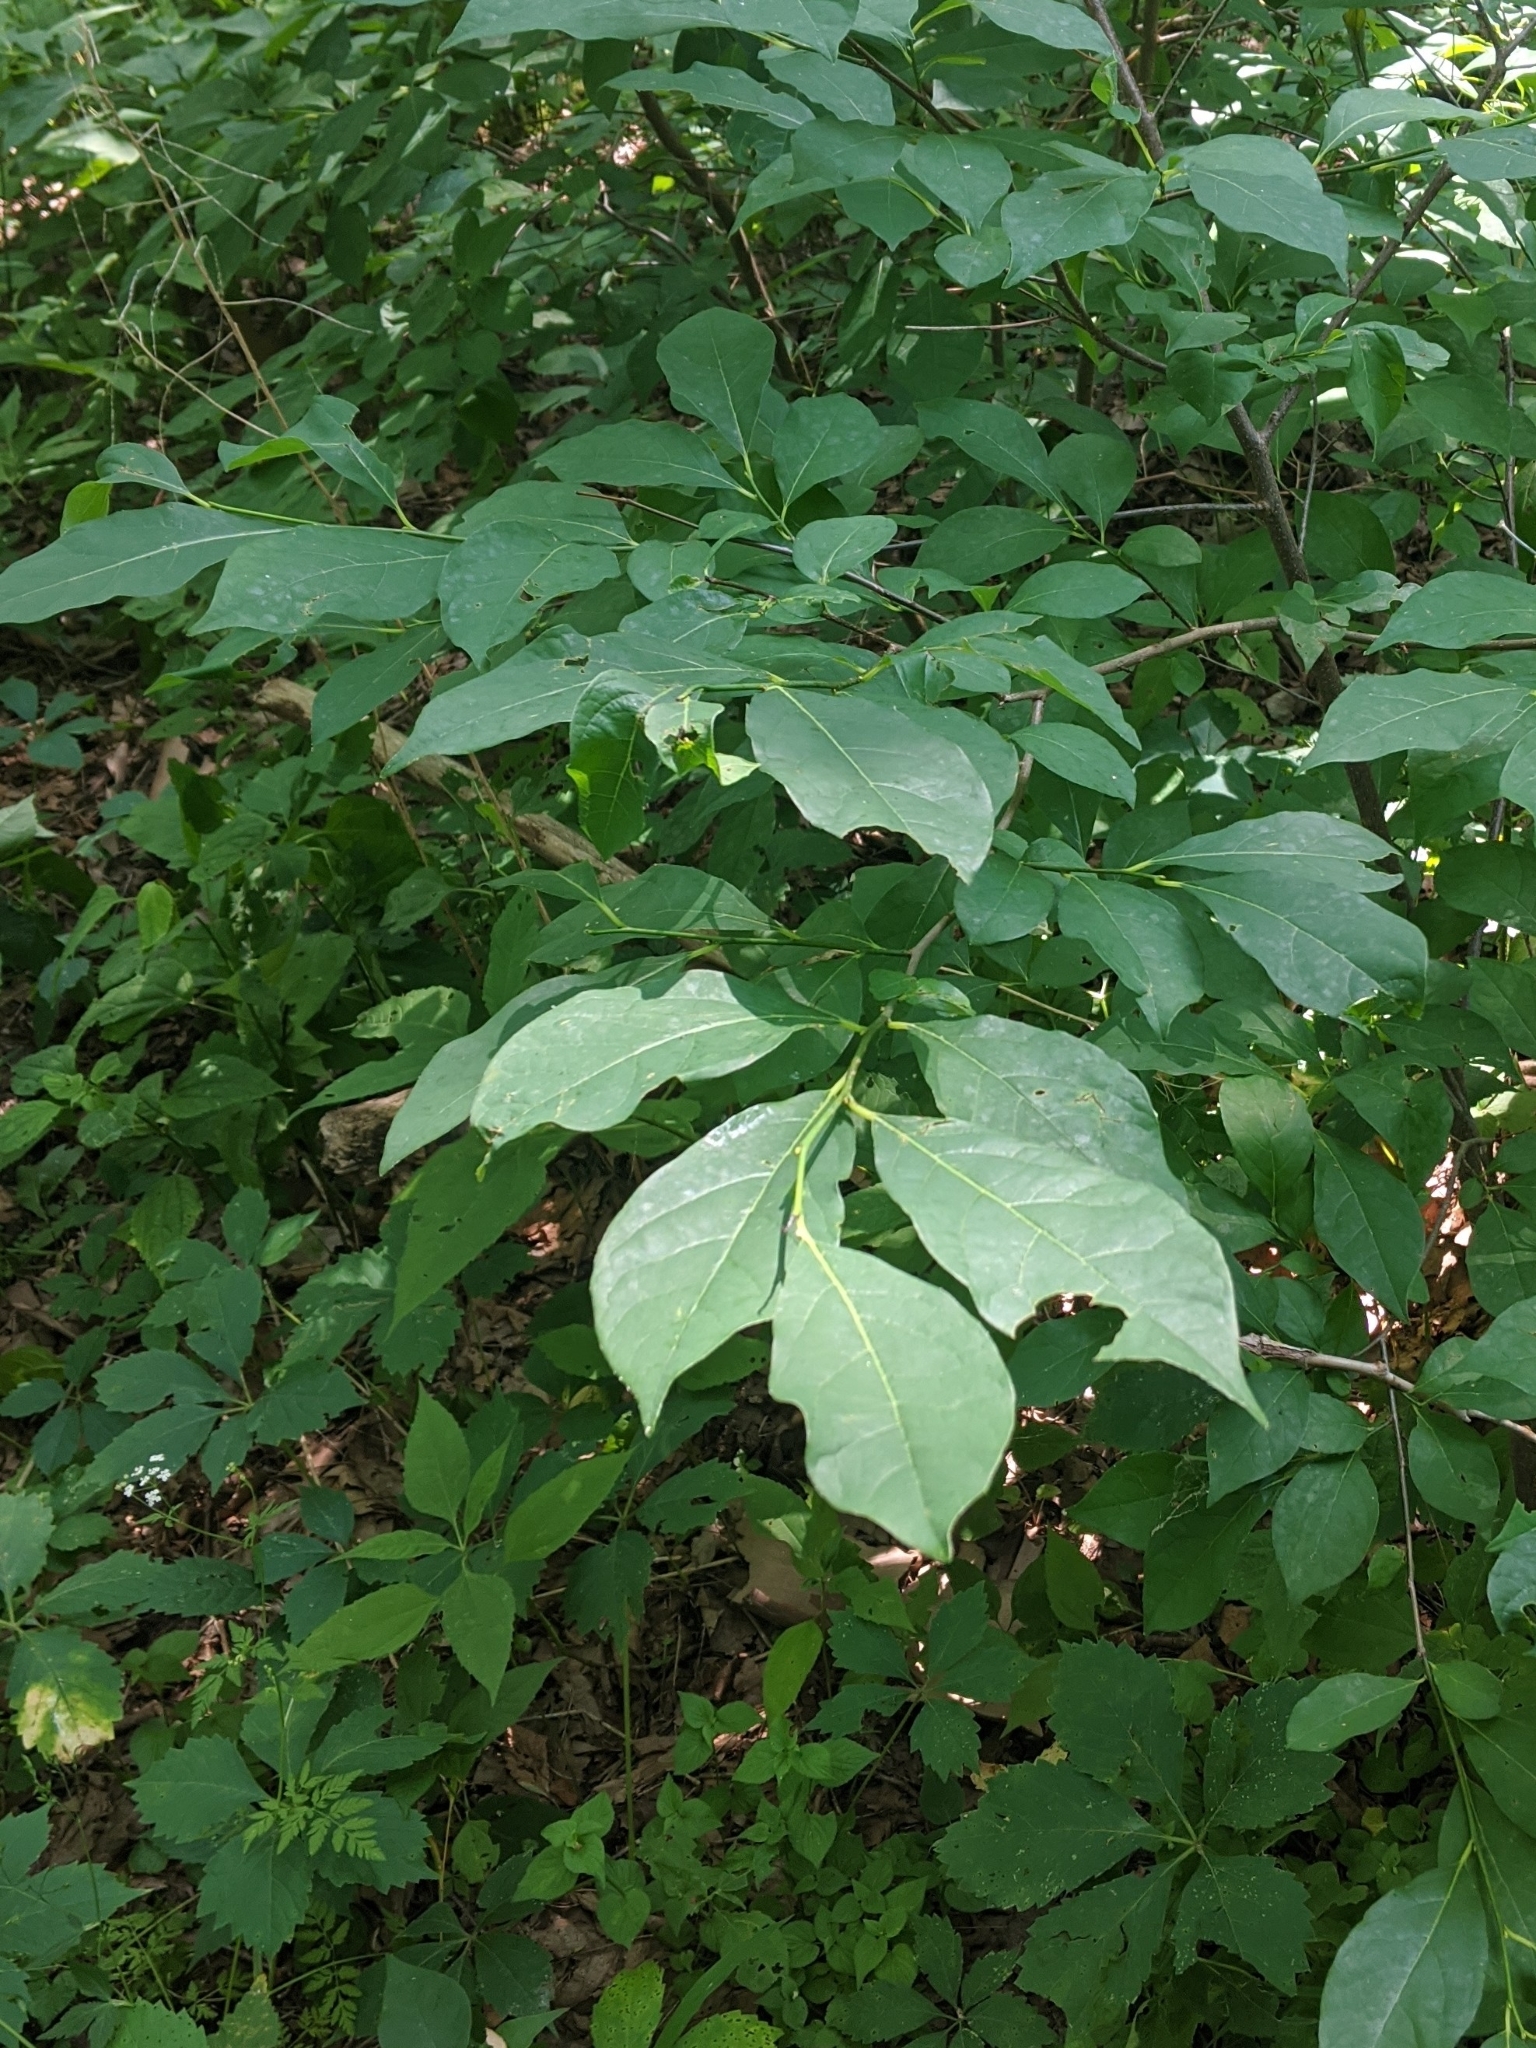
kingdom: Plantae
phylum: Tracheophyta
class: Magnoliopsida
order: Laurales
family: Lauraceae
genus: Lindera
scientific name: Lindera benzoin
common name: Spicebush
